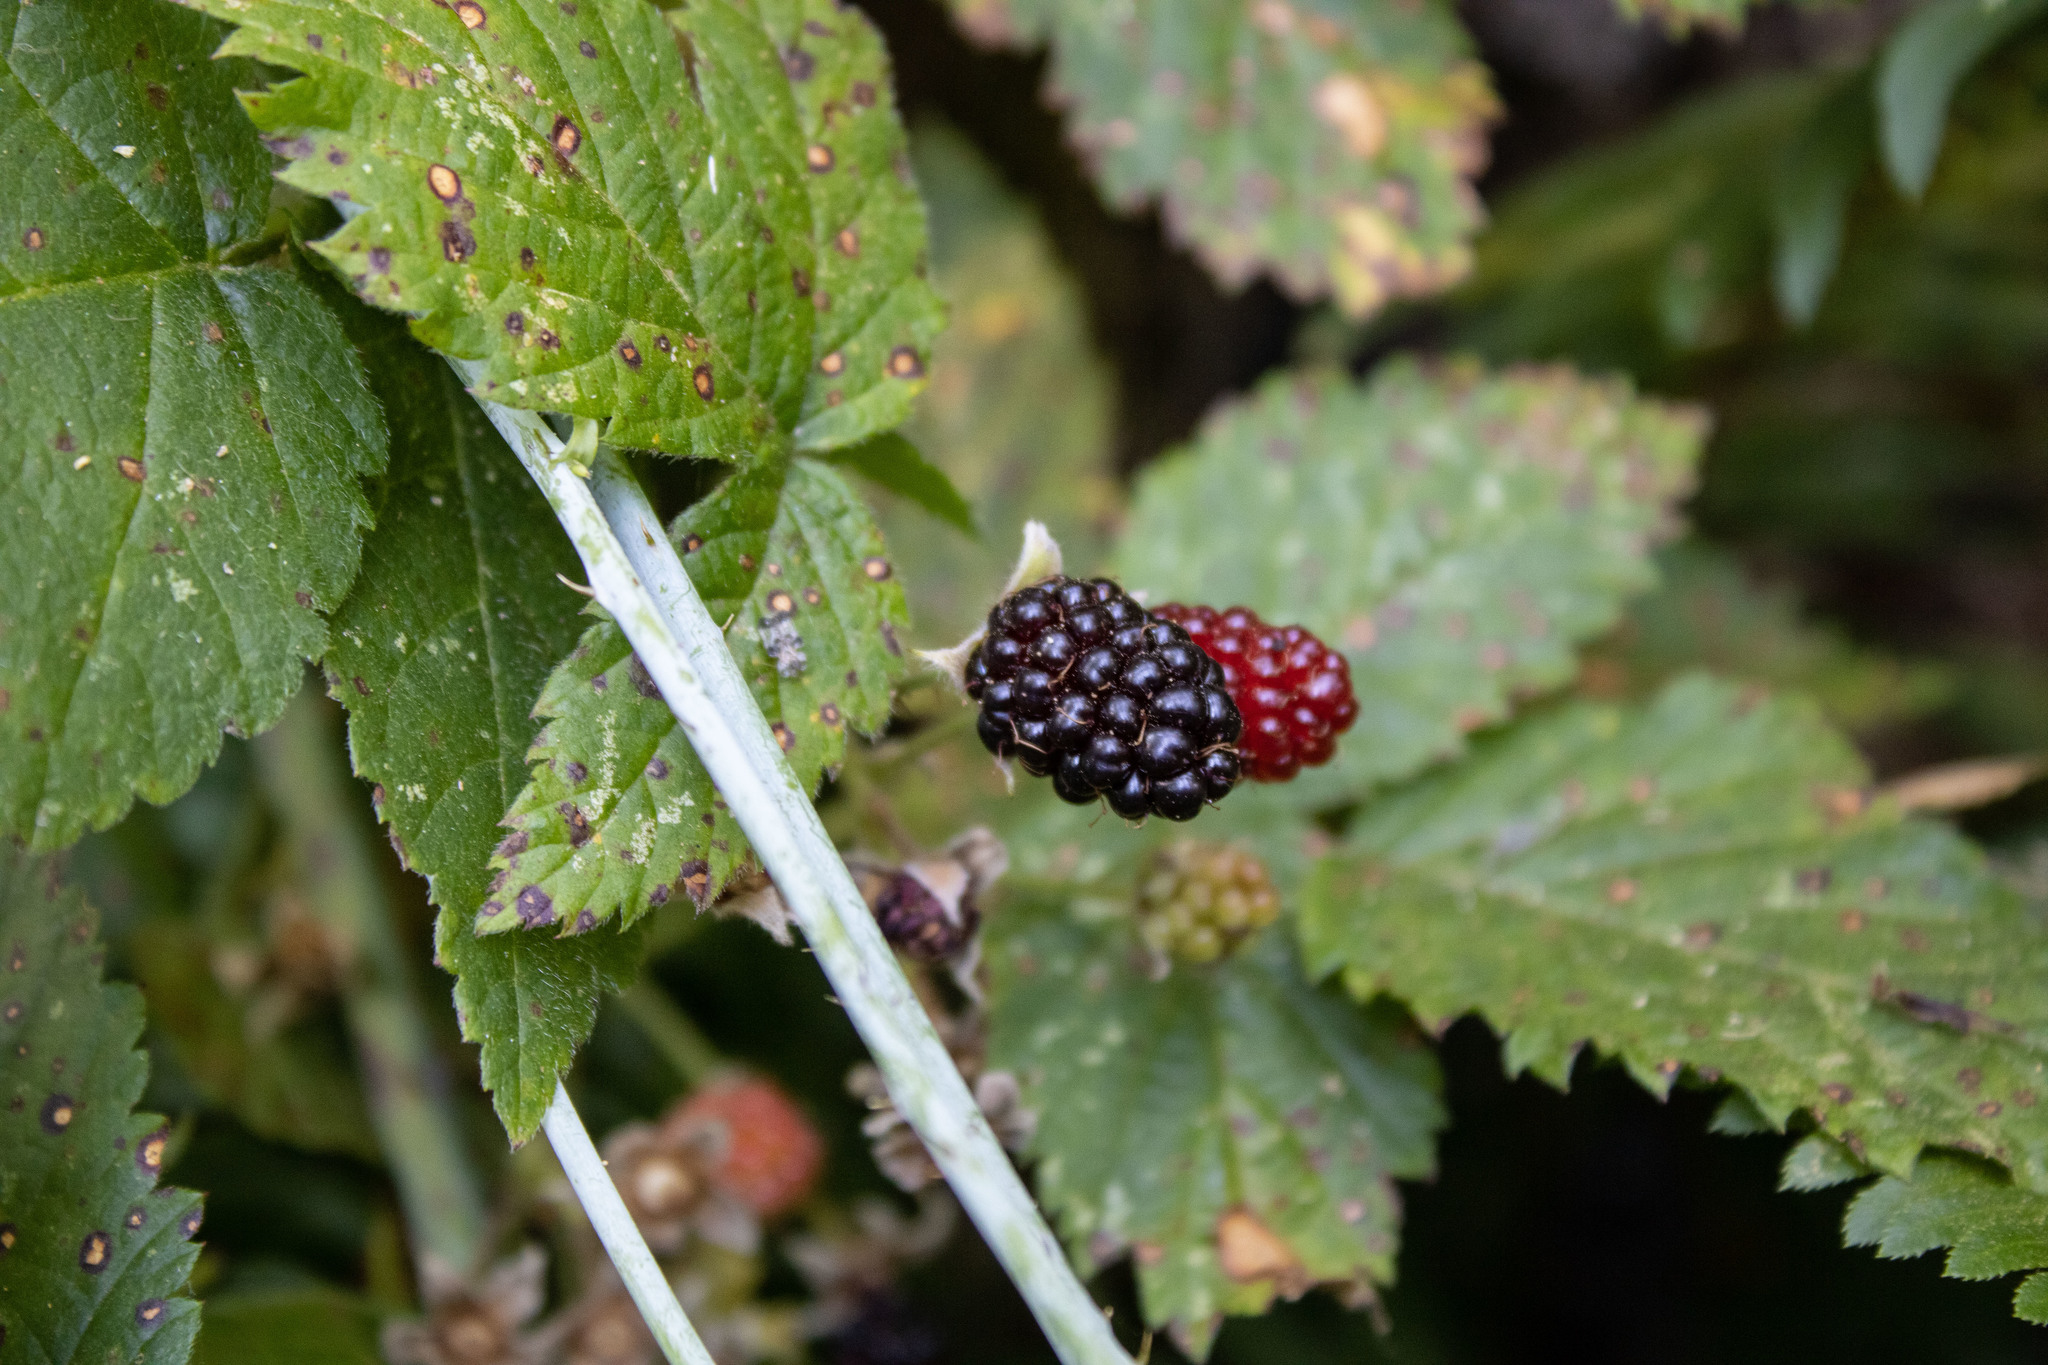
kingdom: Plantae
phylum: Tracheophyta
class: Magnoliopsida
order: Rosales
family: Rosaceae
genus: Rubus
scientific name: Rubus ursinus
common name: Pacific blackberry
